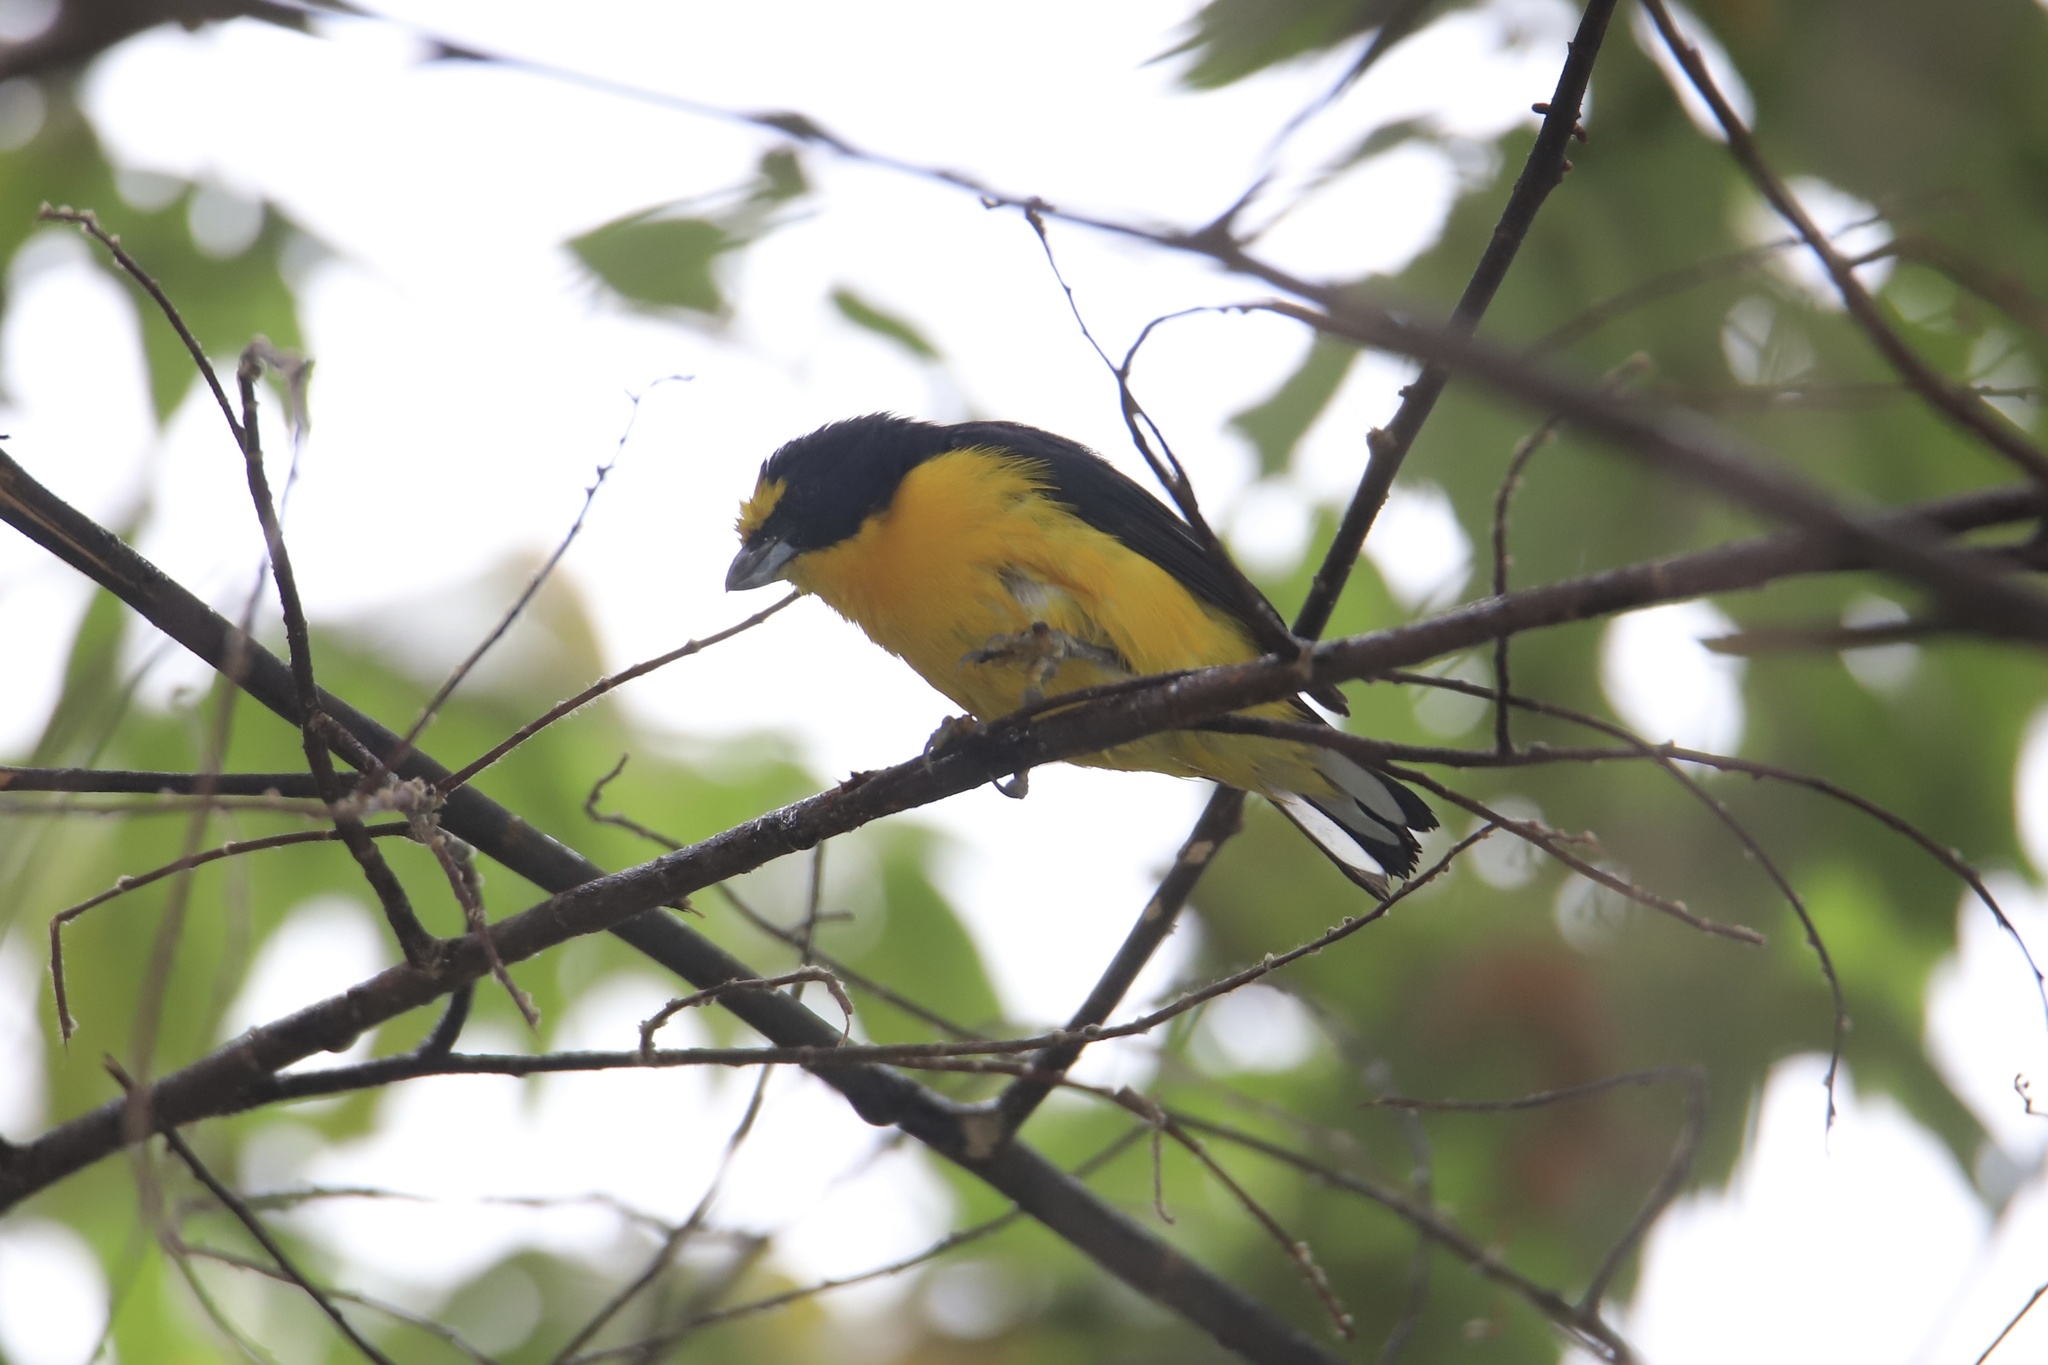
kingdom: Animalia
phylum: Chordata
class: Aves
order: Passeriformes
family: Fringillidae
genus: Euphonia
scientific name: Euphonia laniirostris
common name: Thick-billed euphonia
